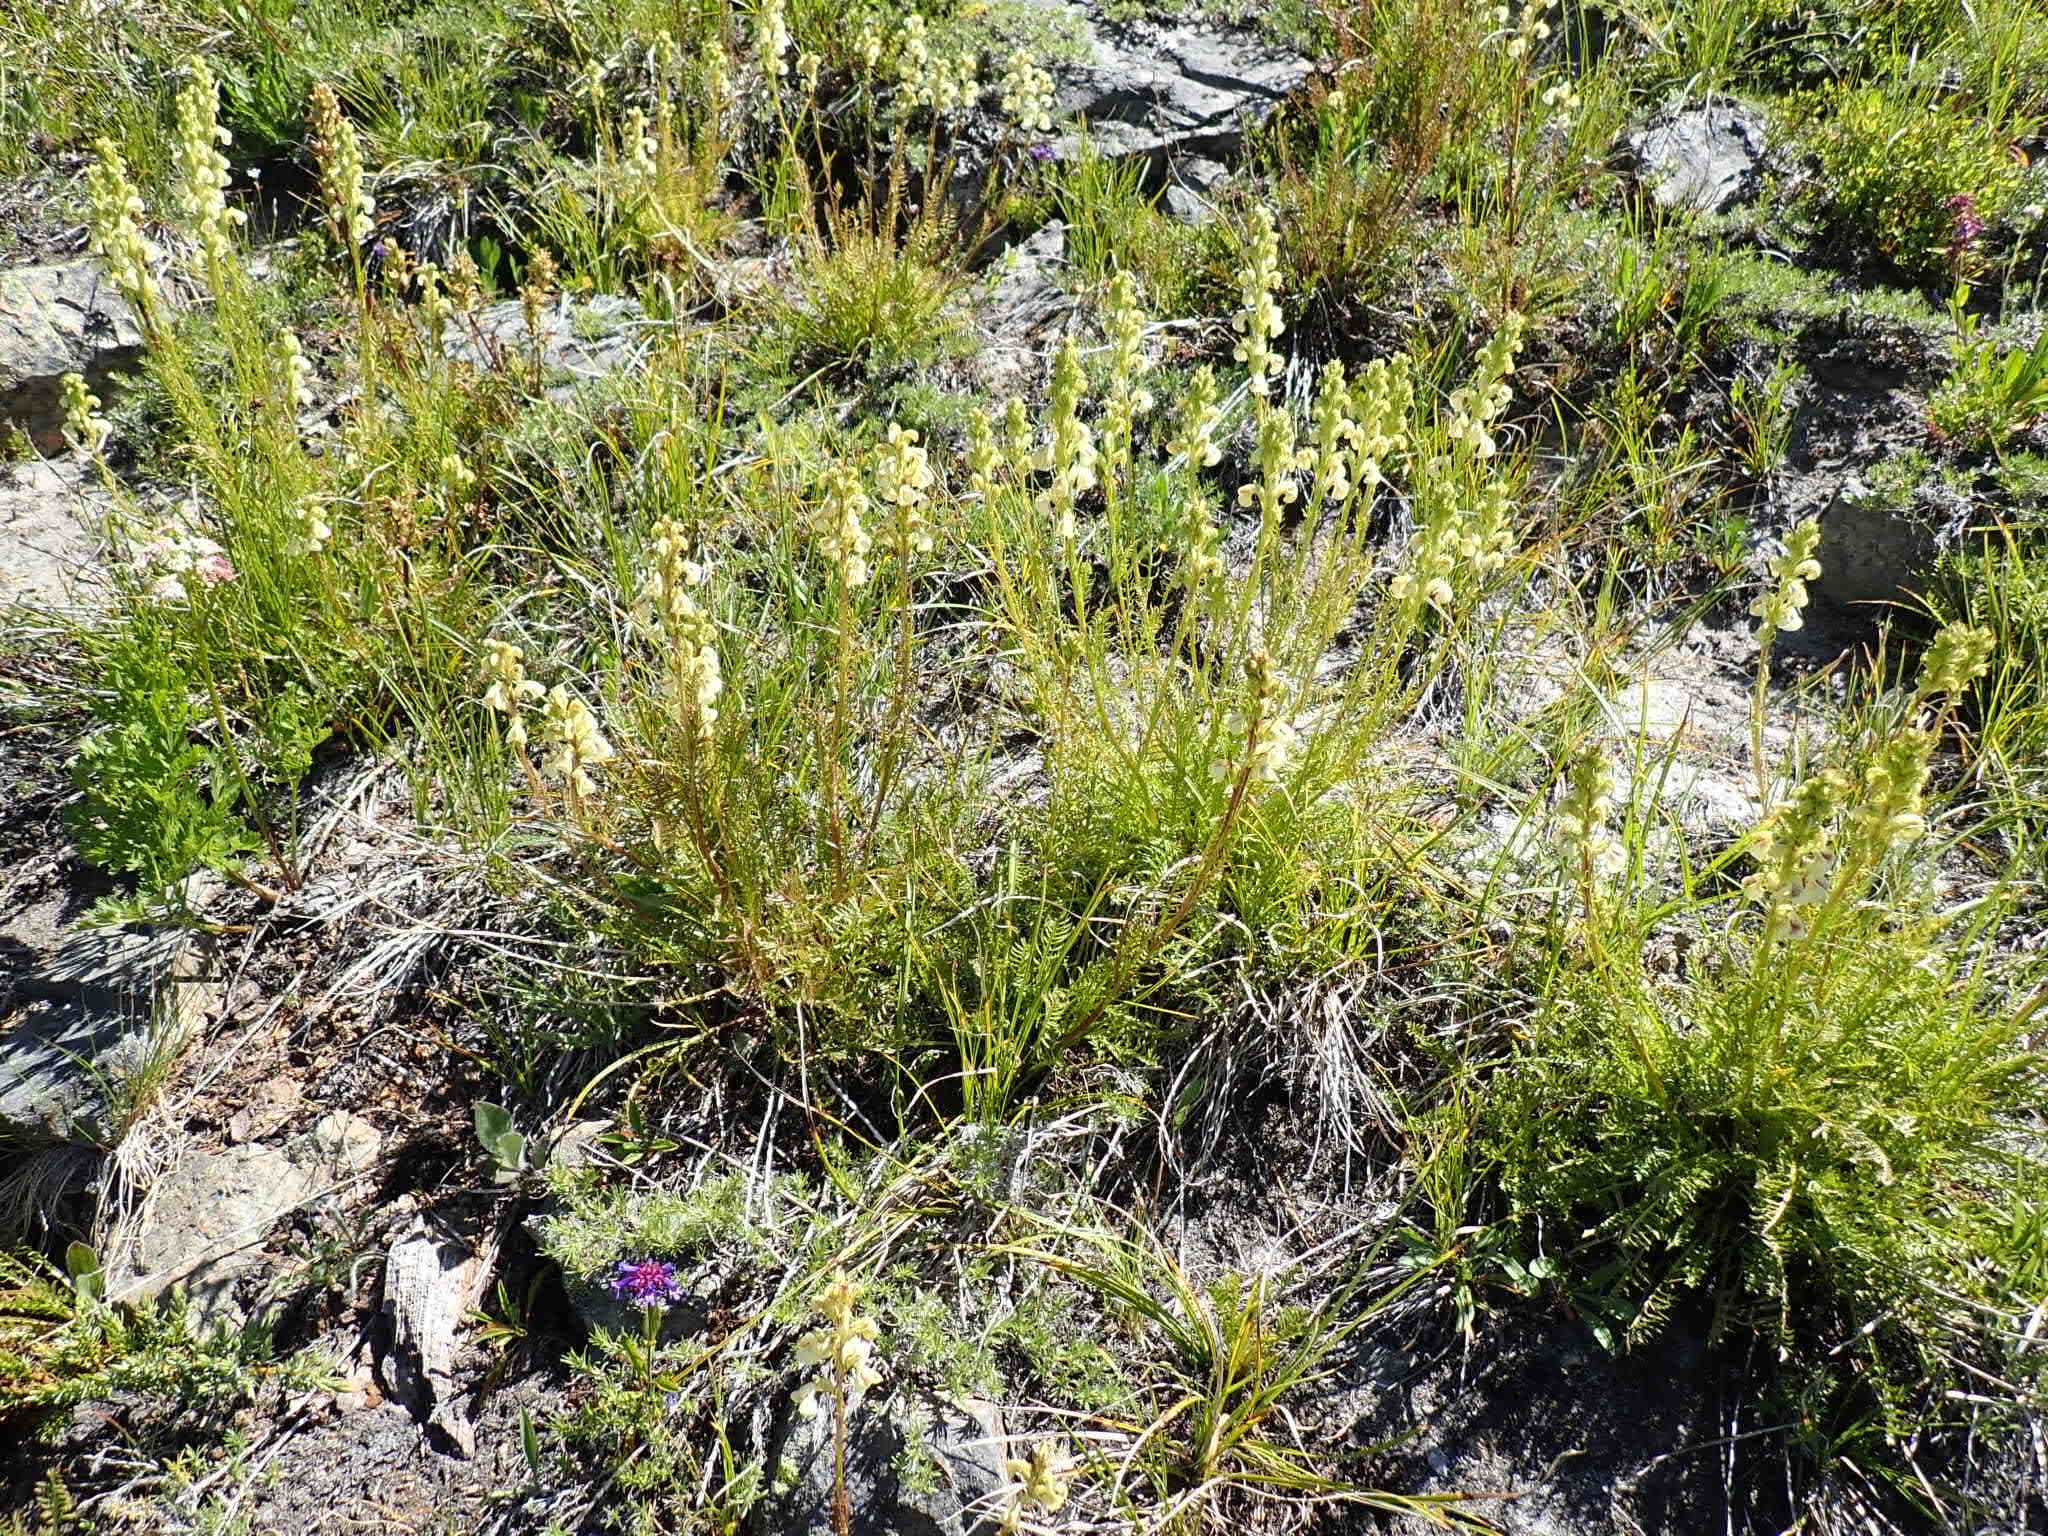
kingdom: Plantae
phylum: Tracheophyta
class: Magnoliopsida
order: Lamiales
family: Orobanchaceae
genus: Pedicularis
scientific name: Pedicularis contorta
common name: Coiled lousewort
